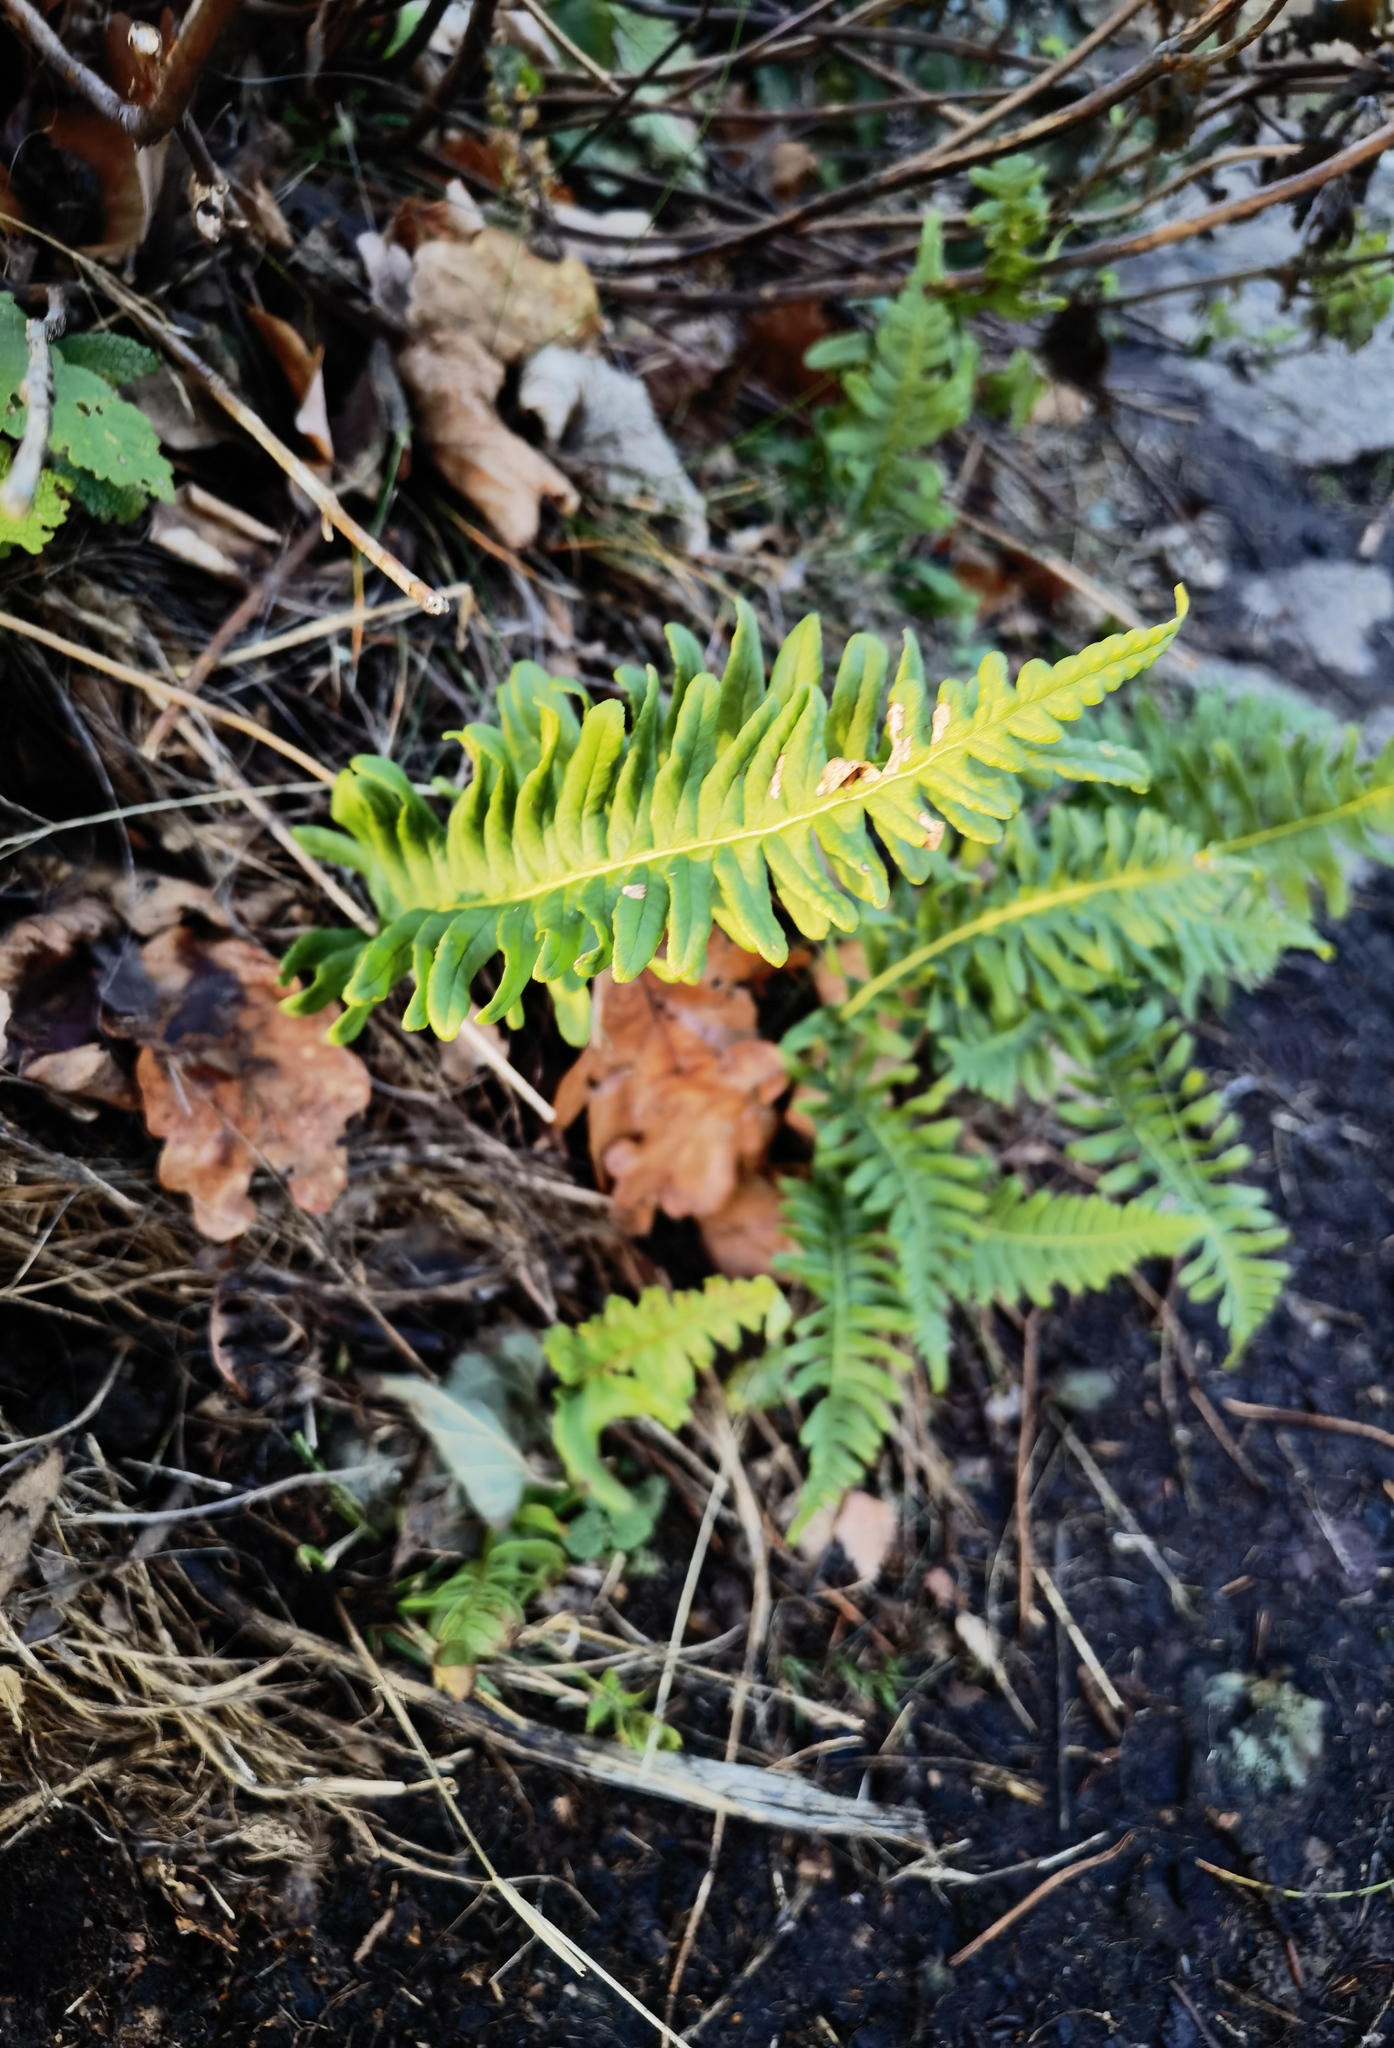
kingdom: Plantae
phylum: Tracheophyta
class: Polypodiopsida
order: Polypodiales
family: Polypodiaceae
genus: Polypodium
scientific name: Polypodium vulgare
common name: Common polypody
